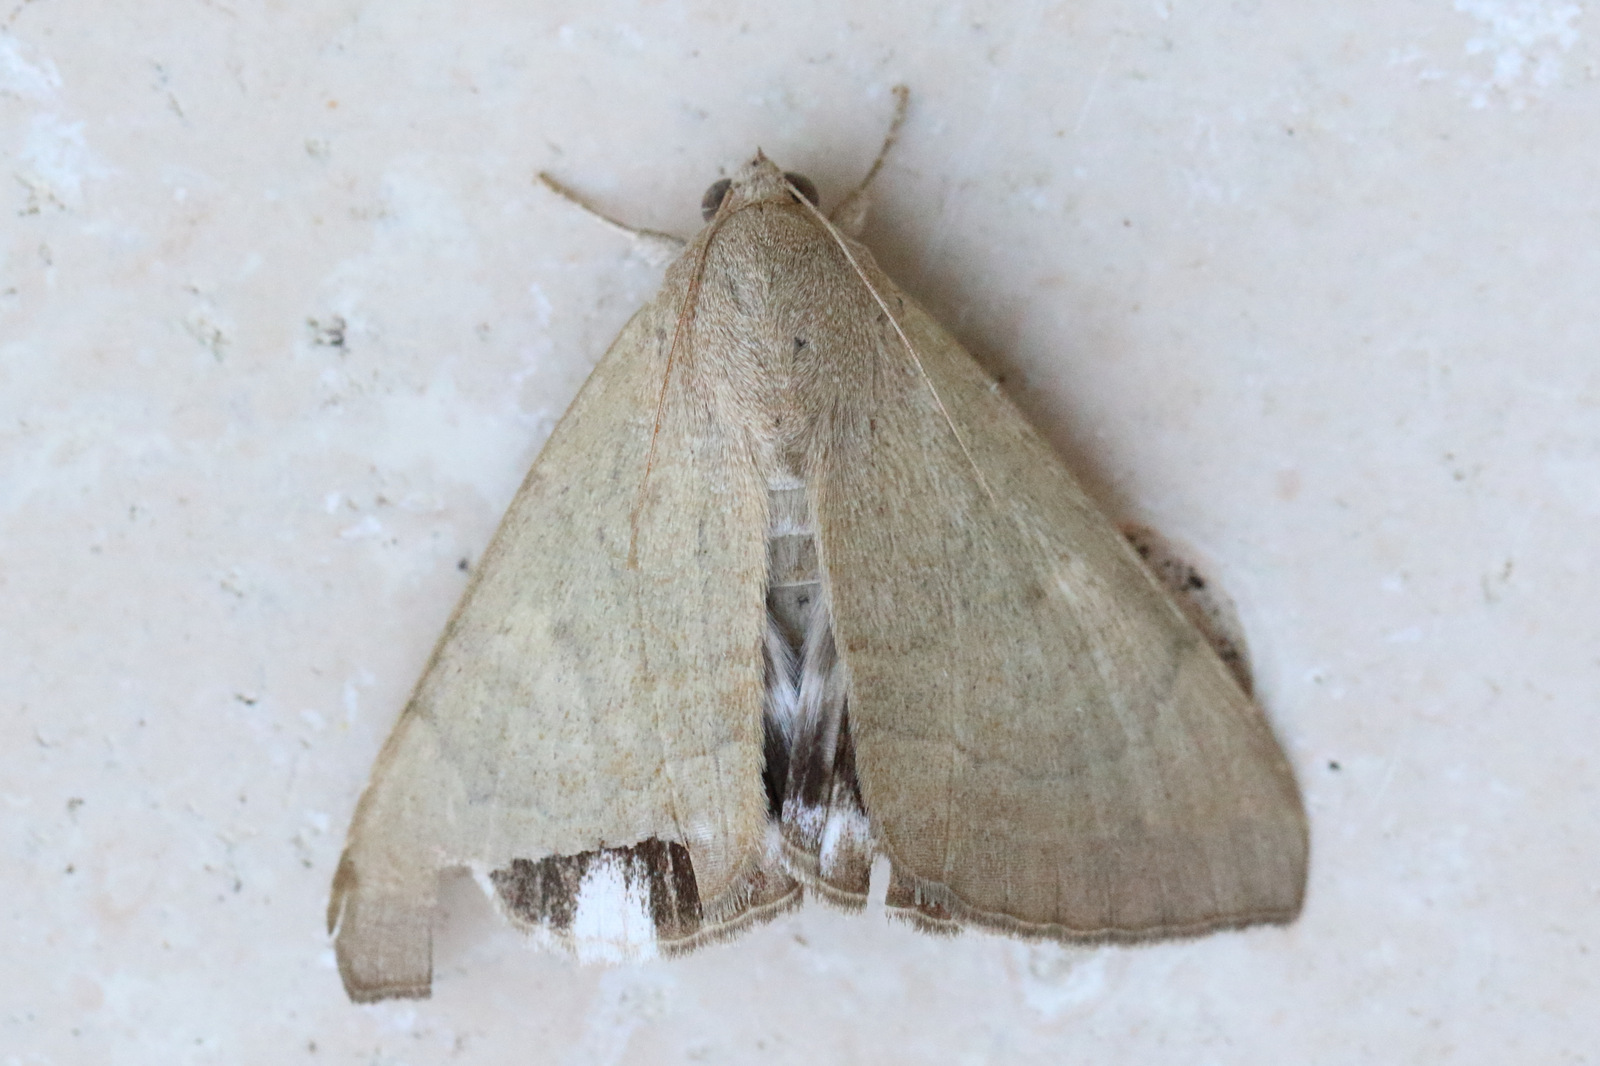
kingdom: Animalia
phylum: Arthropoda
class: Insecta
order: Lepidoptera
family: Erebidae
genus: Achaea
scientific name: Achaea janata
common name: Croton caterpillar
